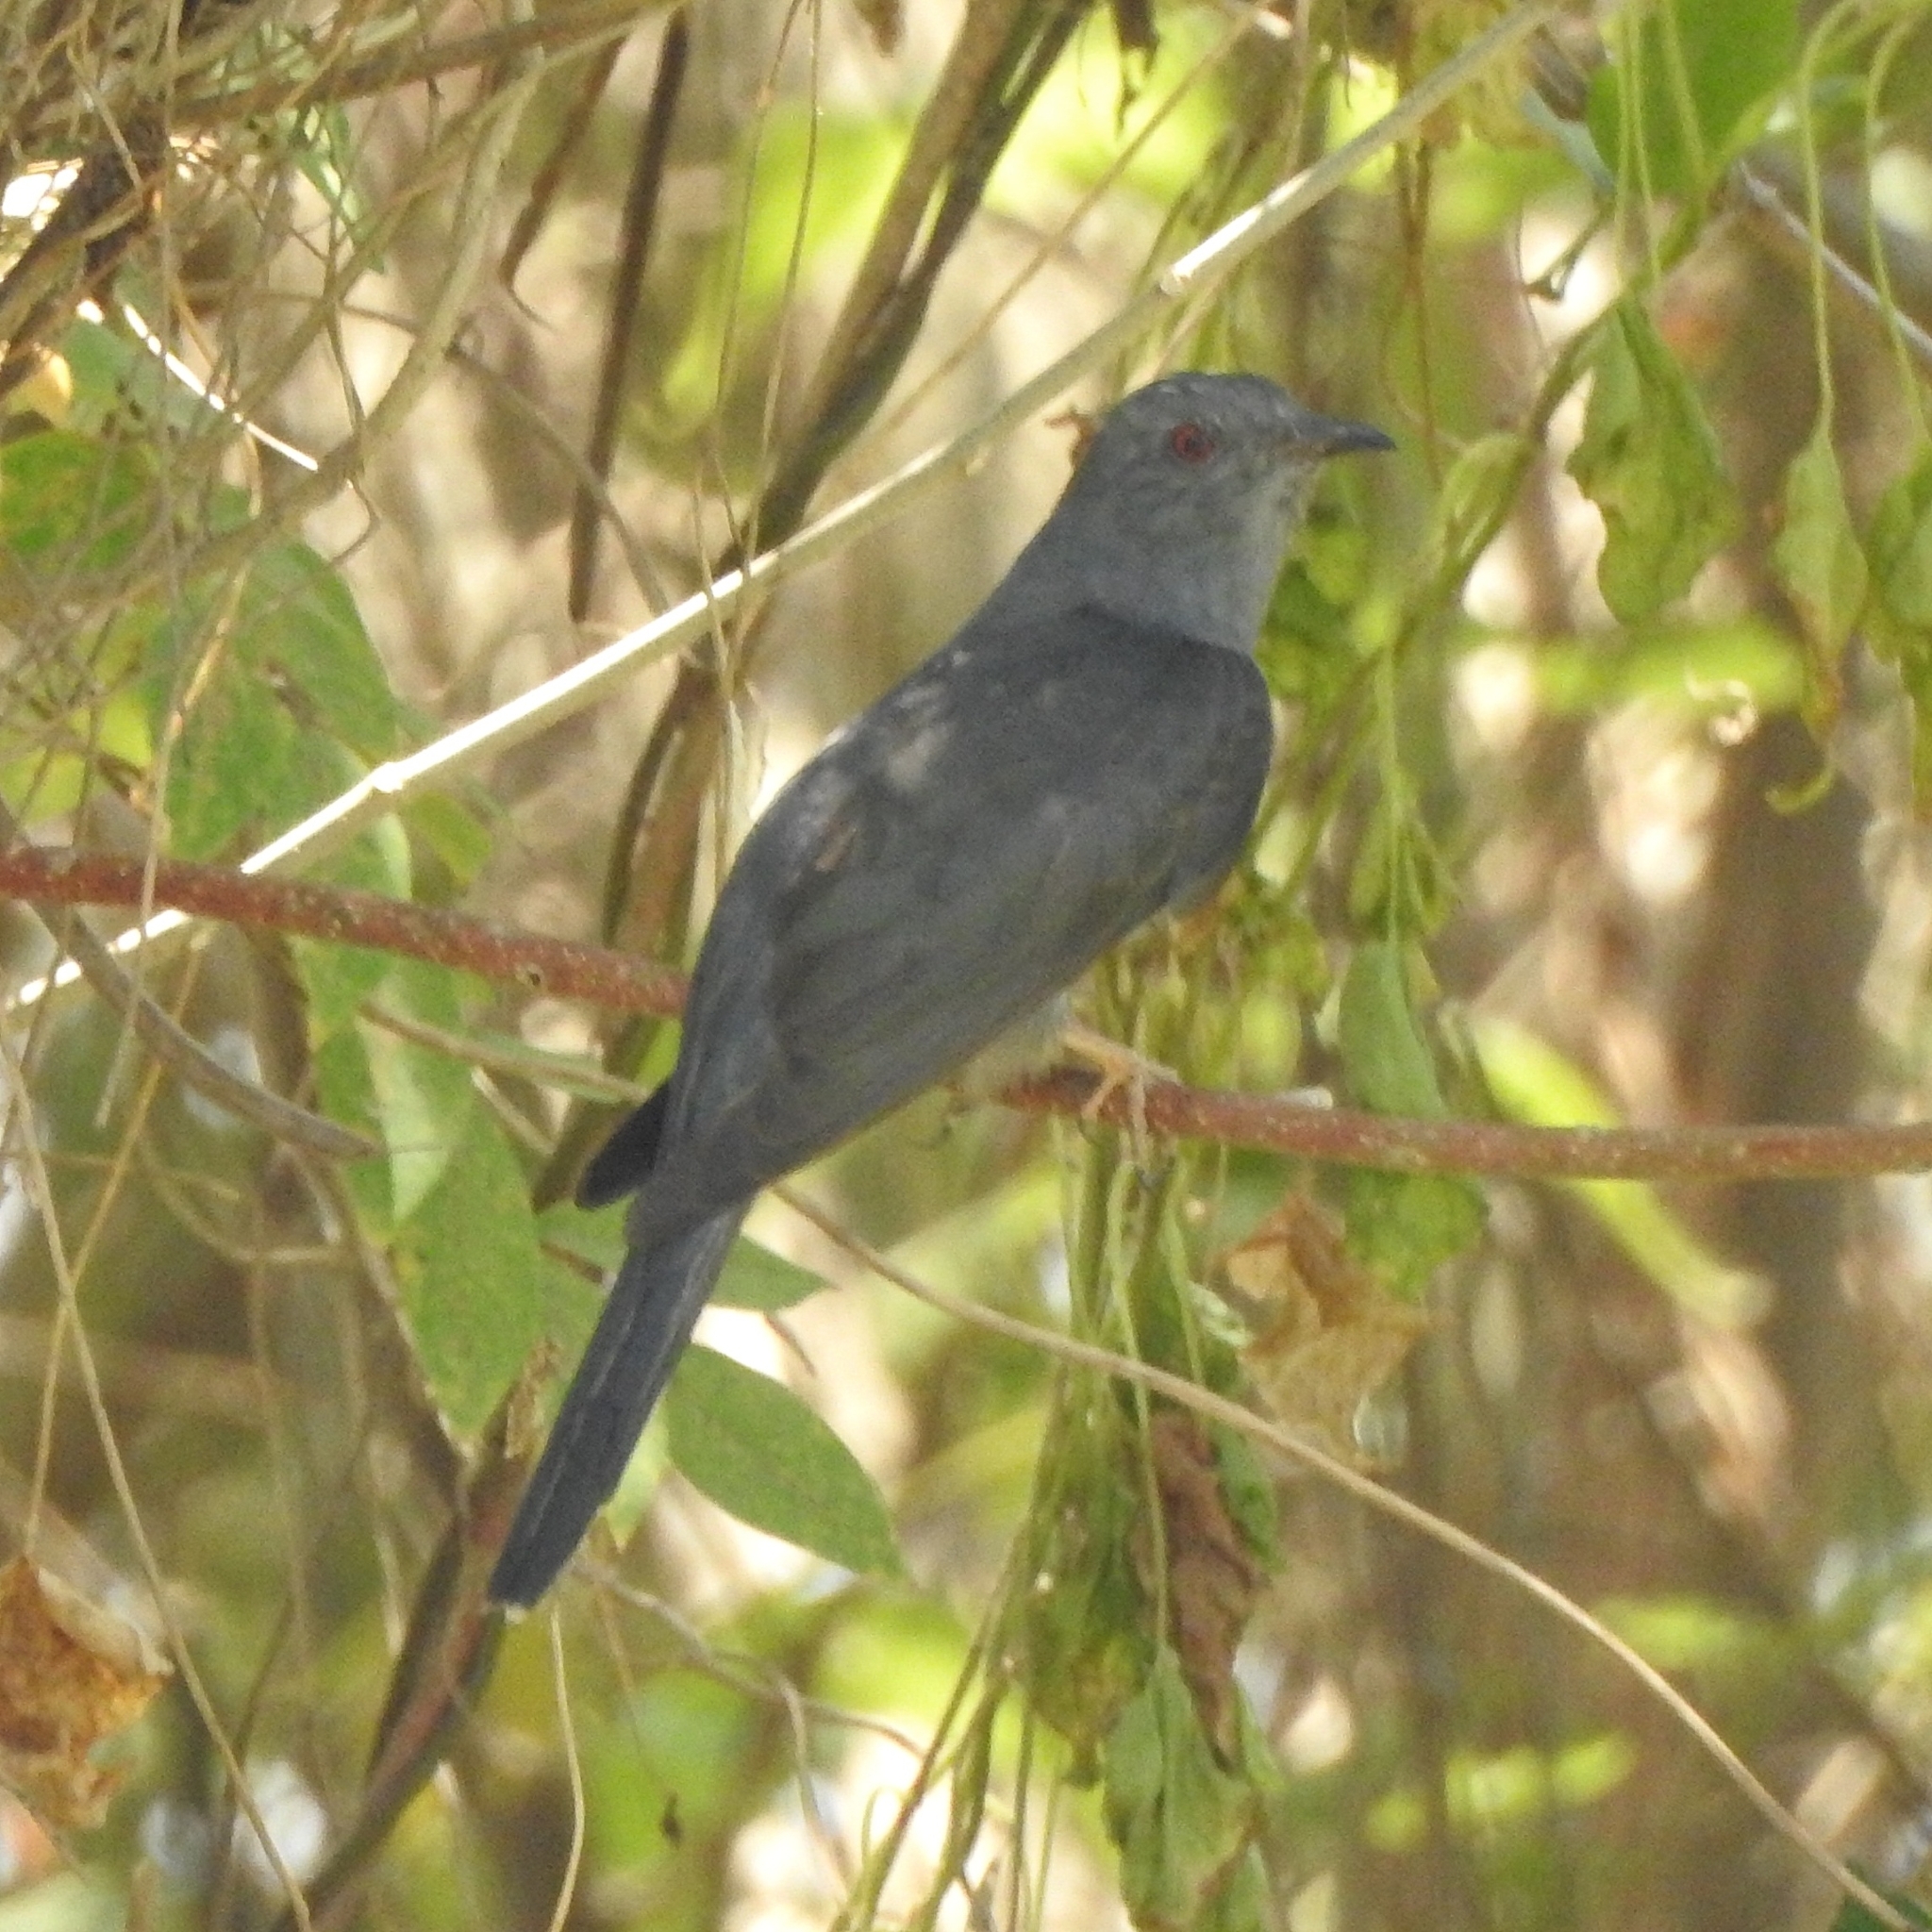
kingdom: Animalia
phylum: Chordata
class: Aves
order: Cuculiformes
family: Cuculidae
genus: Cacomantis
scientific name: Cacomantis passerinus
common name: Grey-bellied cuckoo
